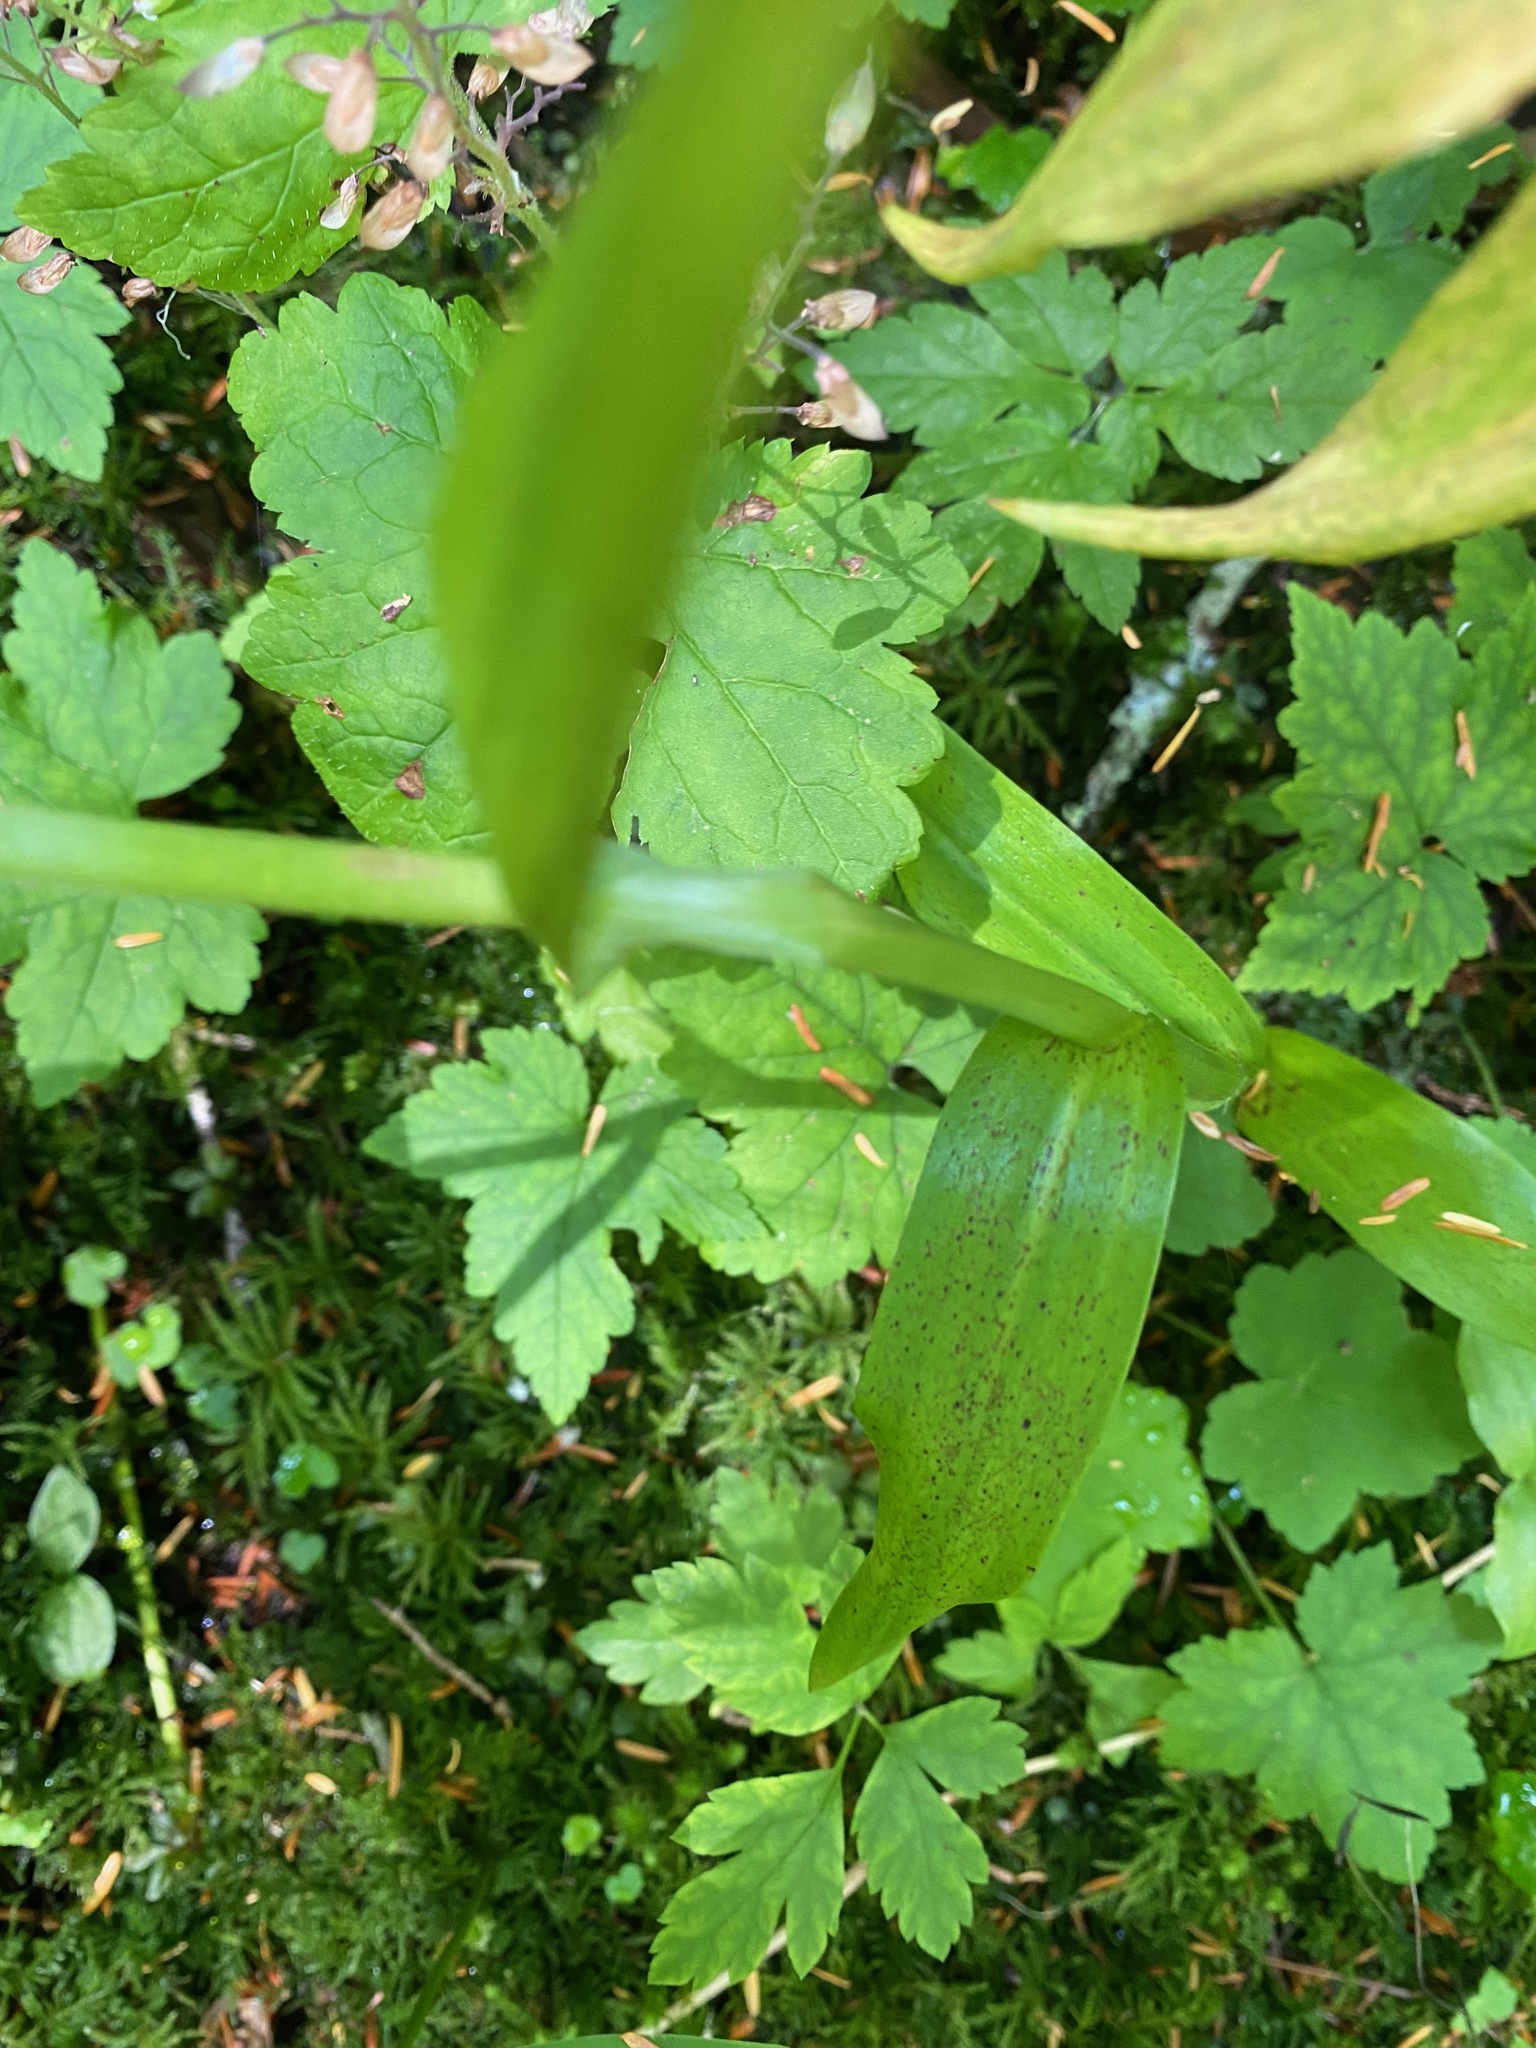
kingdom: Plantae
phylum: Tracheophyta
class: Liliopsida
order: Asparagales
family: Orchidaceae
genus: Platanthera
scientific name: Platanthera stricta
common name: Slender bog orchid
